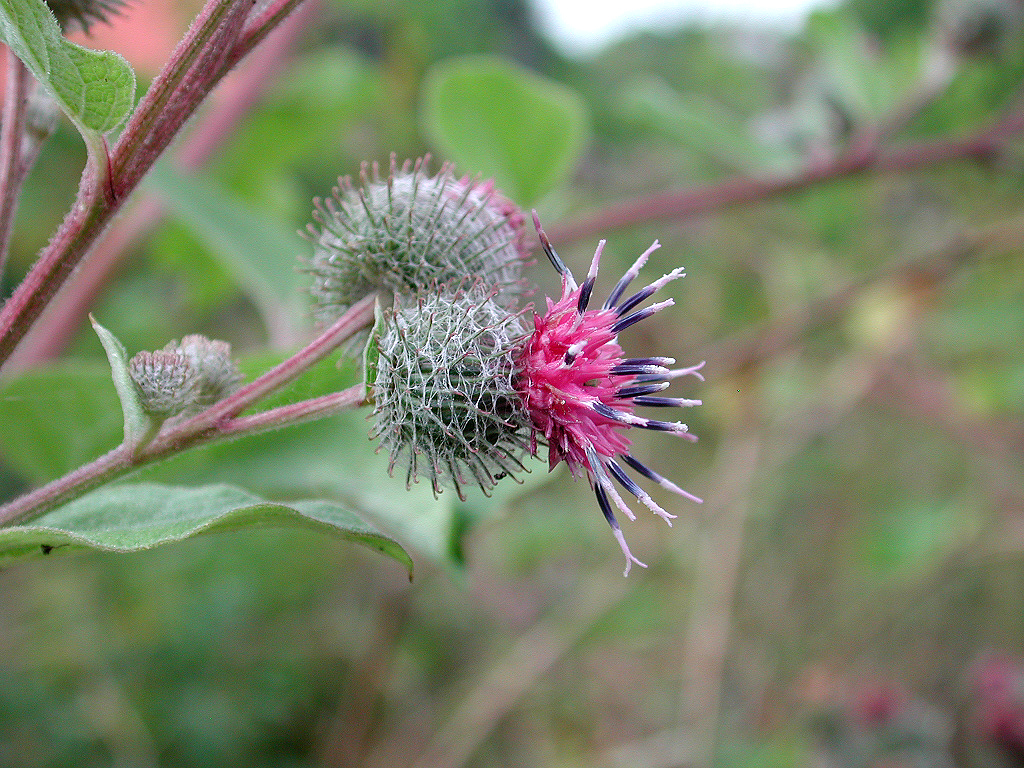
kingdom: Plantae
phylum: Tracheophyta
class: Magnoliopsida
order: Asterales
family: Asteraceae
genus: Arctium
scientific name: Arctium tomentosum
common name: Woolly burdock
